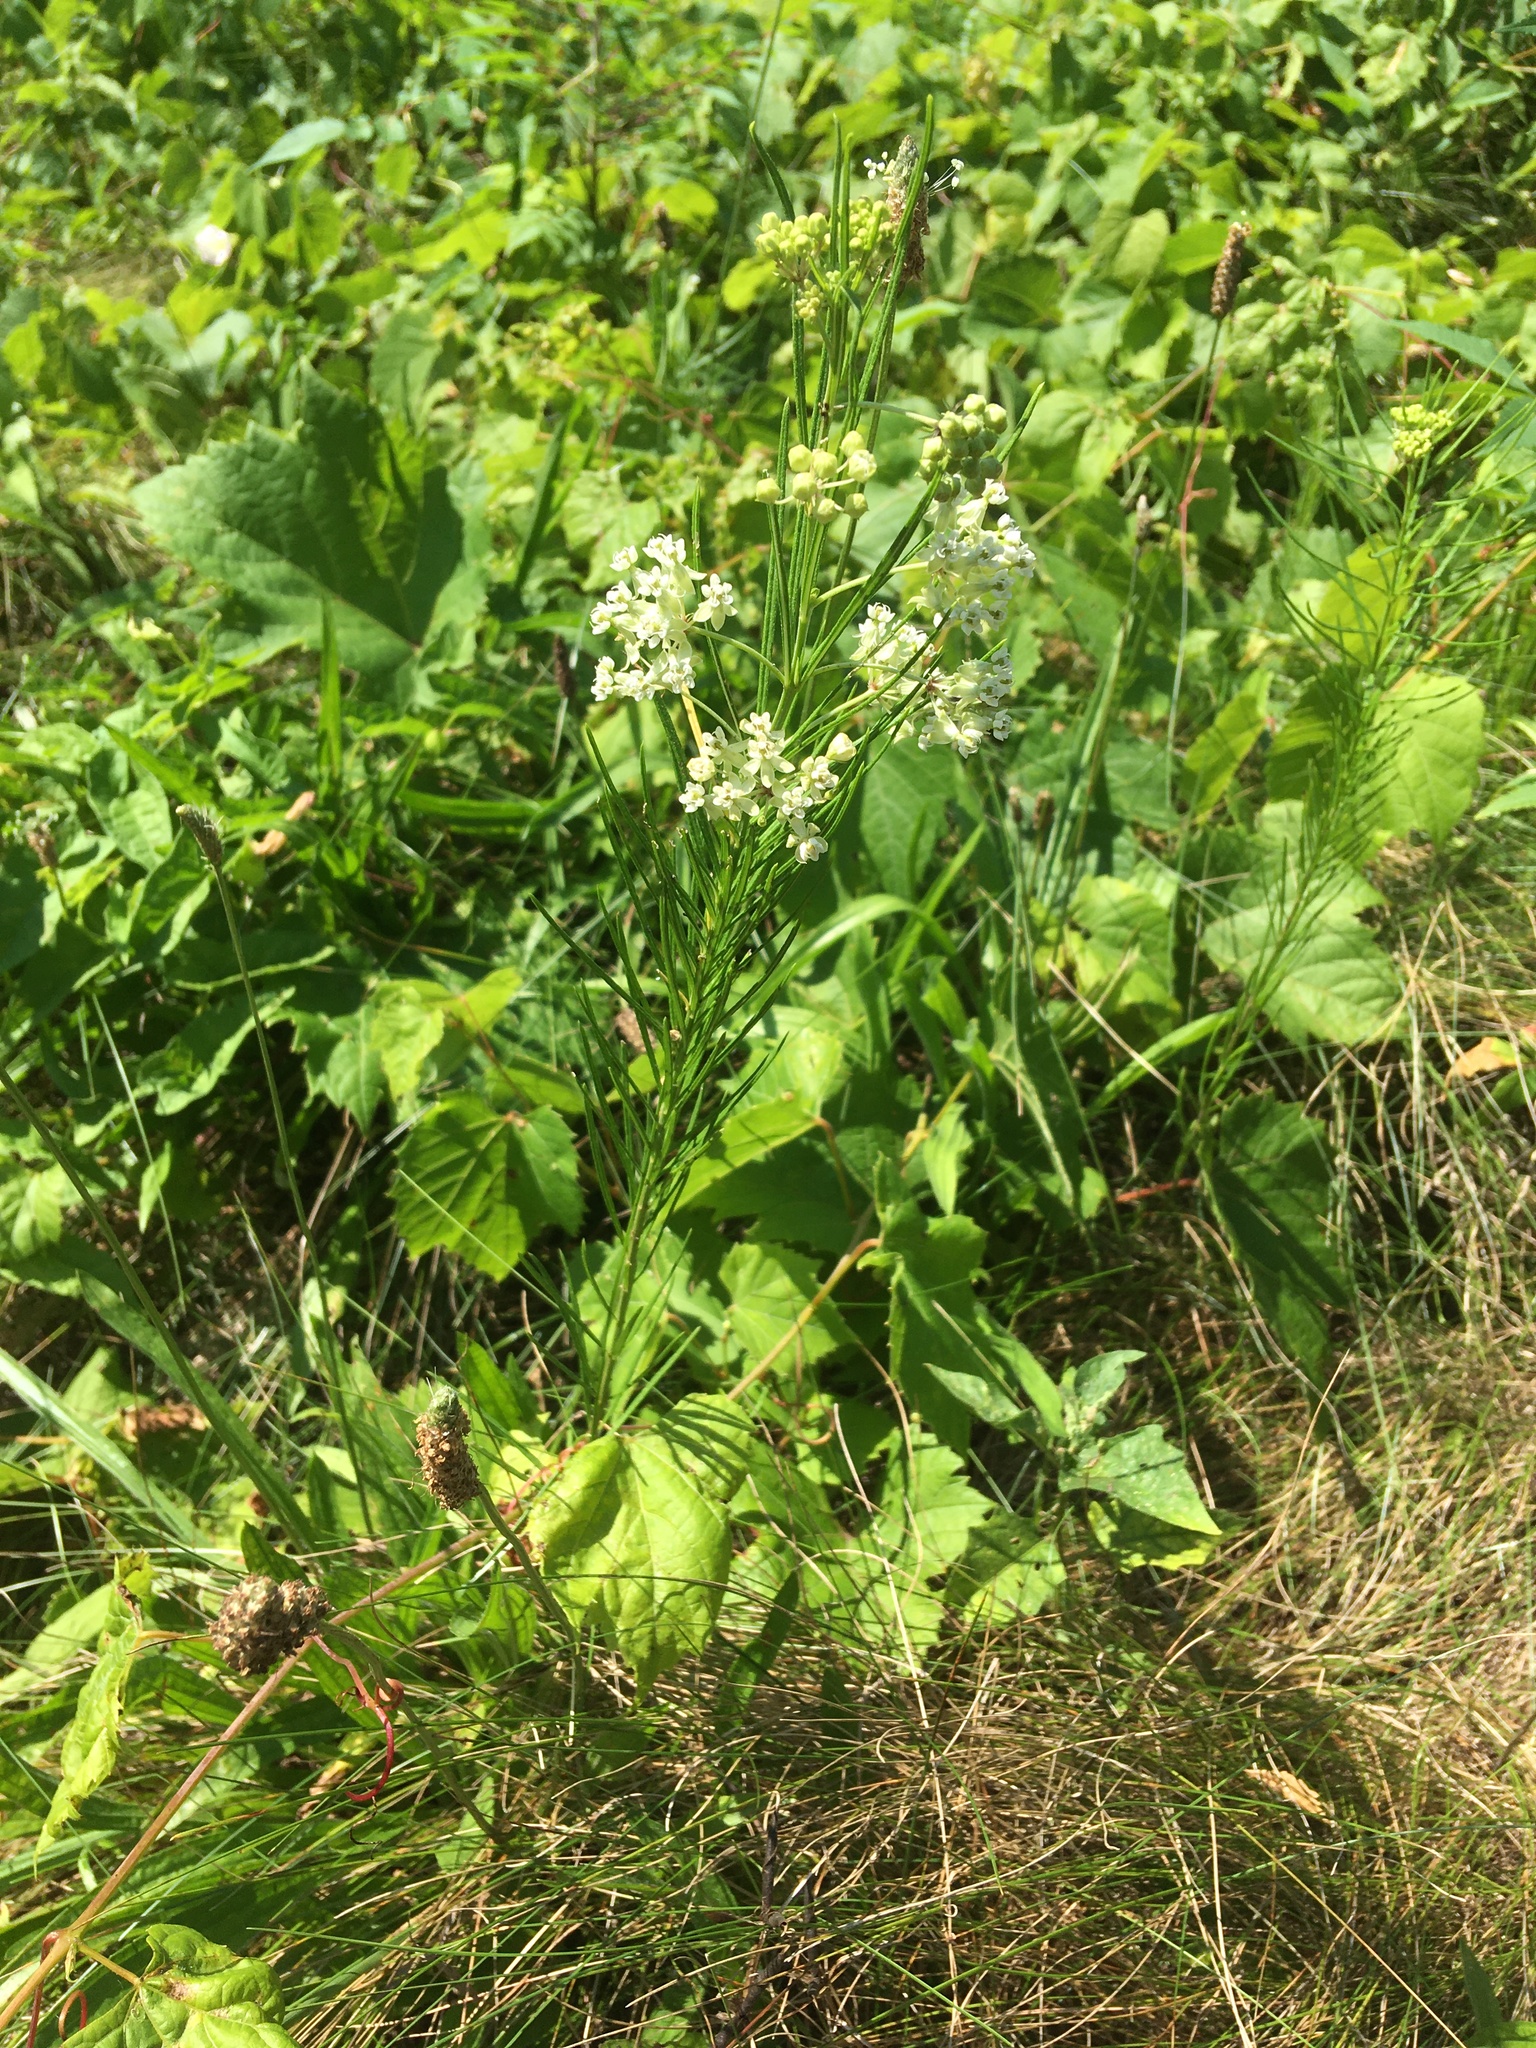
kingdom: Plantae
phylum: Tracheophyta
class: Magnoliopsida
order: Gentianales
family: Apocynaceae
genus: Asclepias
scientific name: Asclepias verticillata
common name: Eastern whorled milkweed
